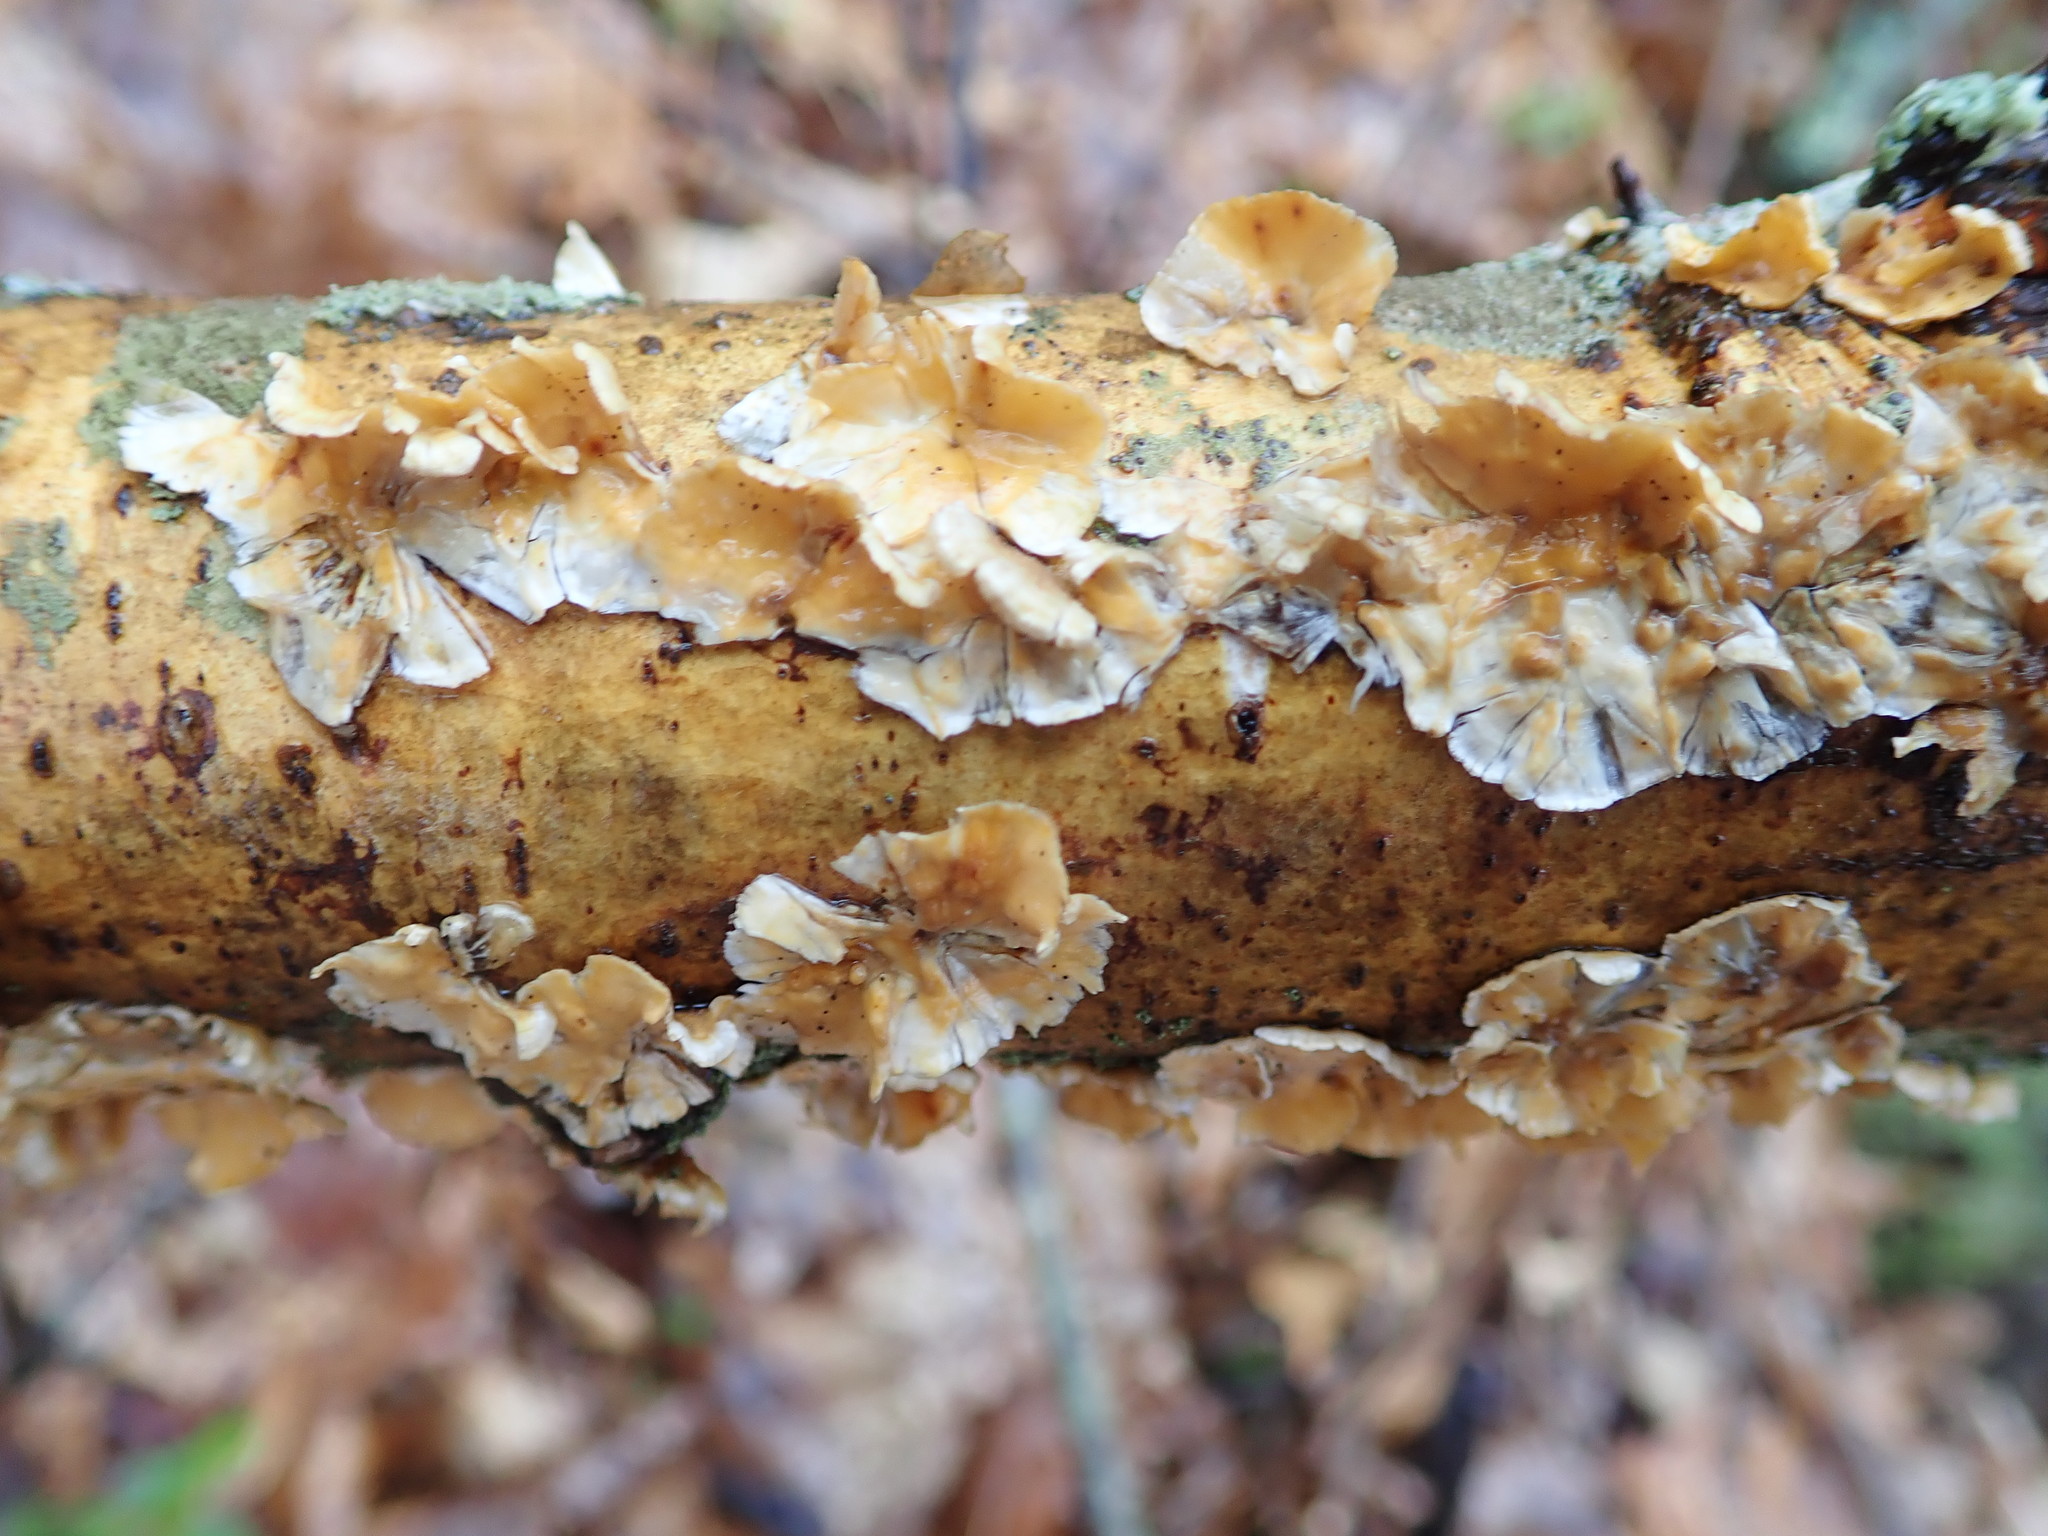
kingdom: Fungi
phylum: Basidiomycota
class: Agaricomycetes
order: Russulales
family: Stereaceae
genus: Stereum
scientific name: Stereum complicatum
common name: Crowded parchment
